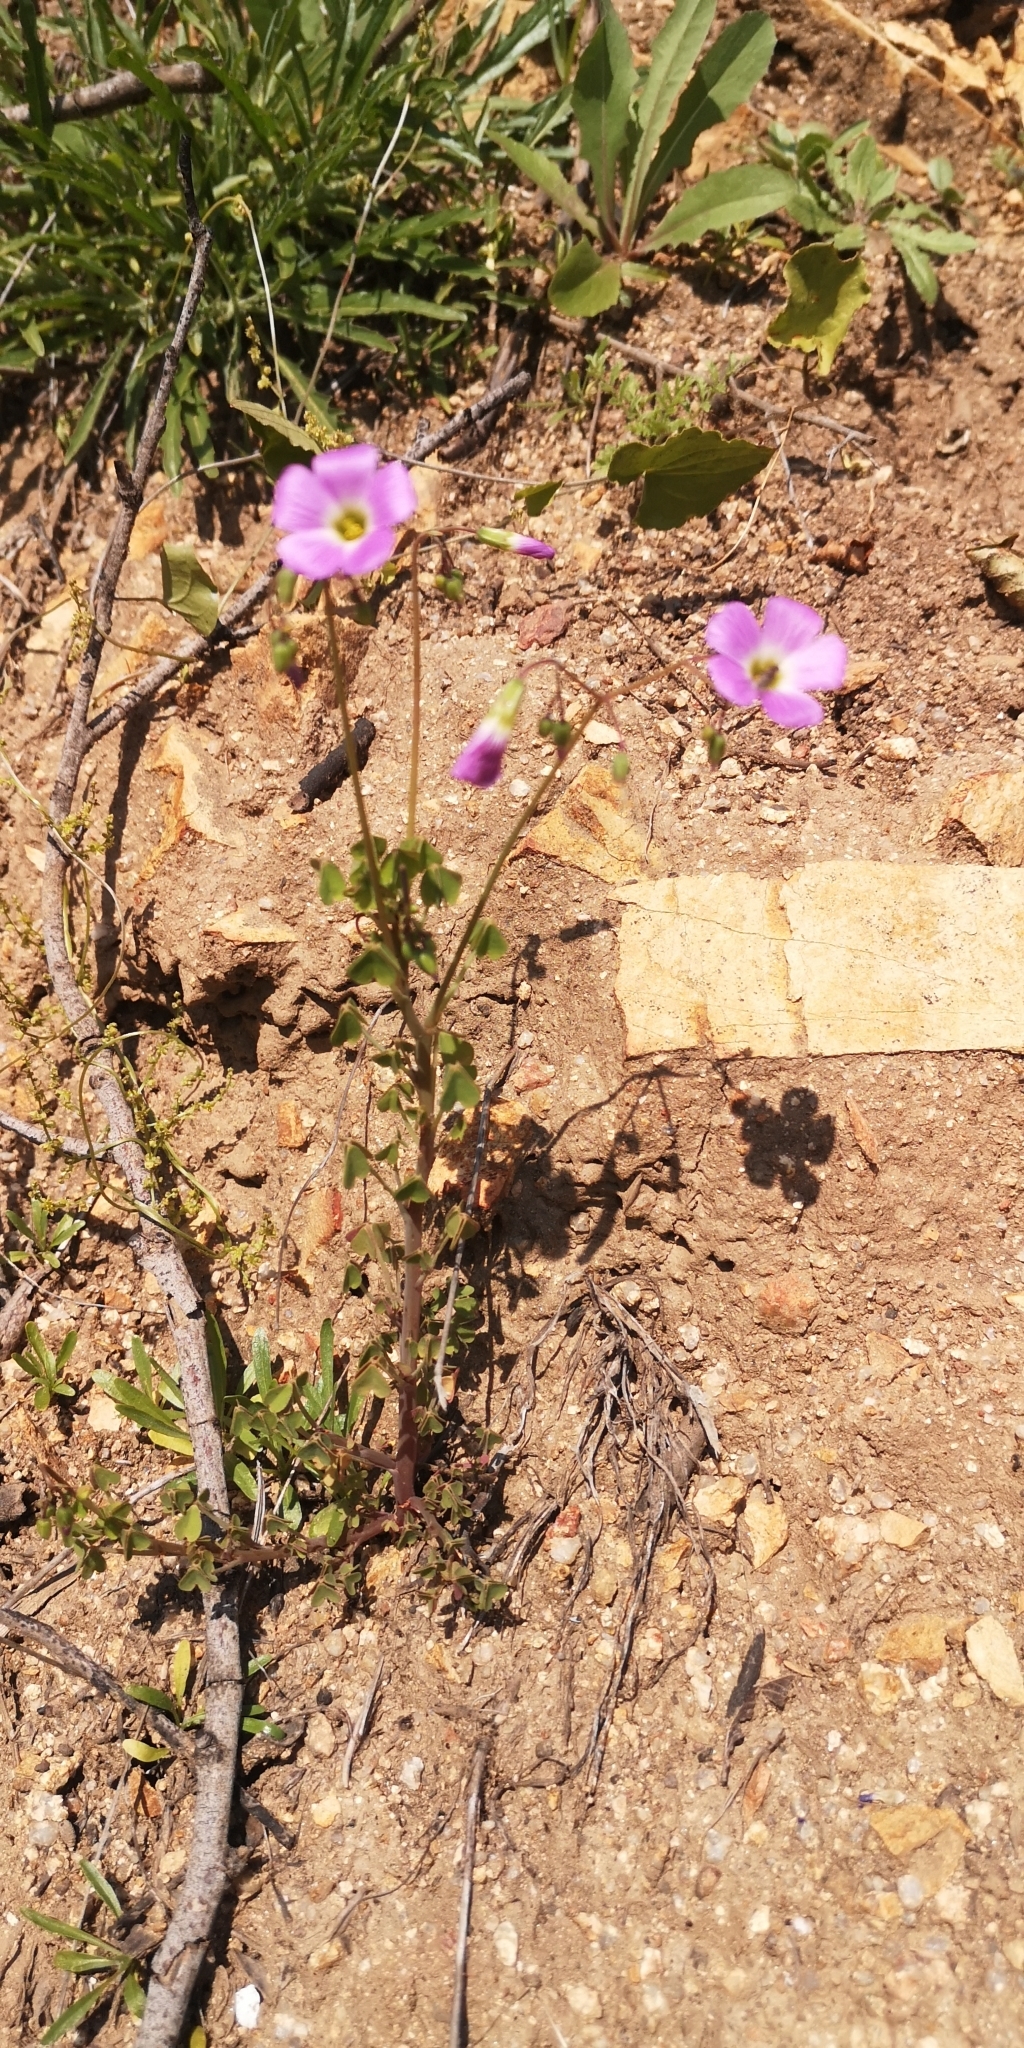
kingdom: Plantae
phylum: Tracheophyta
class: Magnoliopsida
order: Oxalidales
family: Oxalidaceae
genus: Oxalis
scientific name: Oxalis rosea
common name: Annual pink-sorrel
